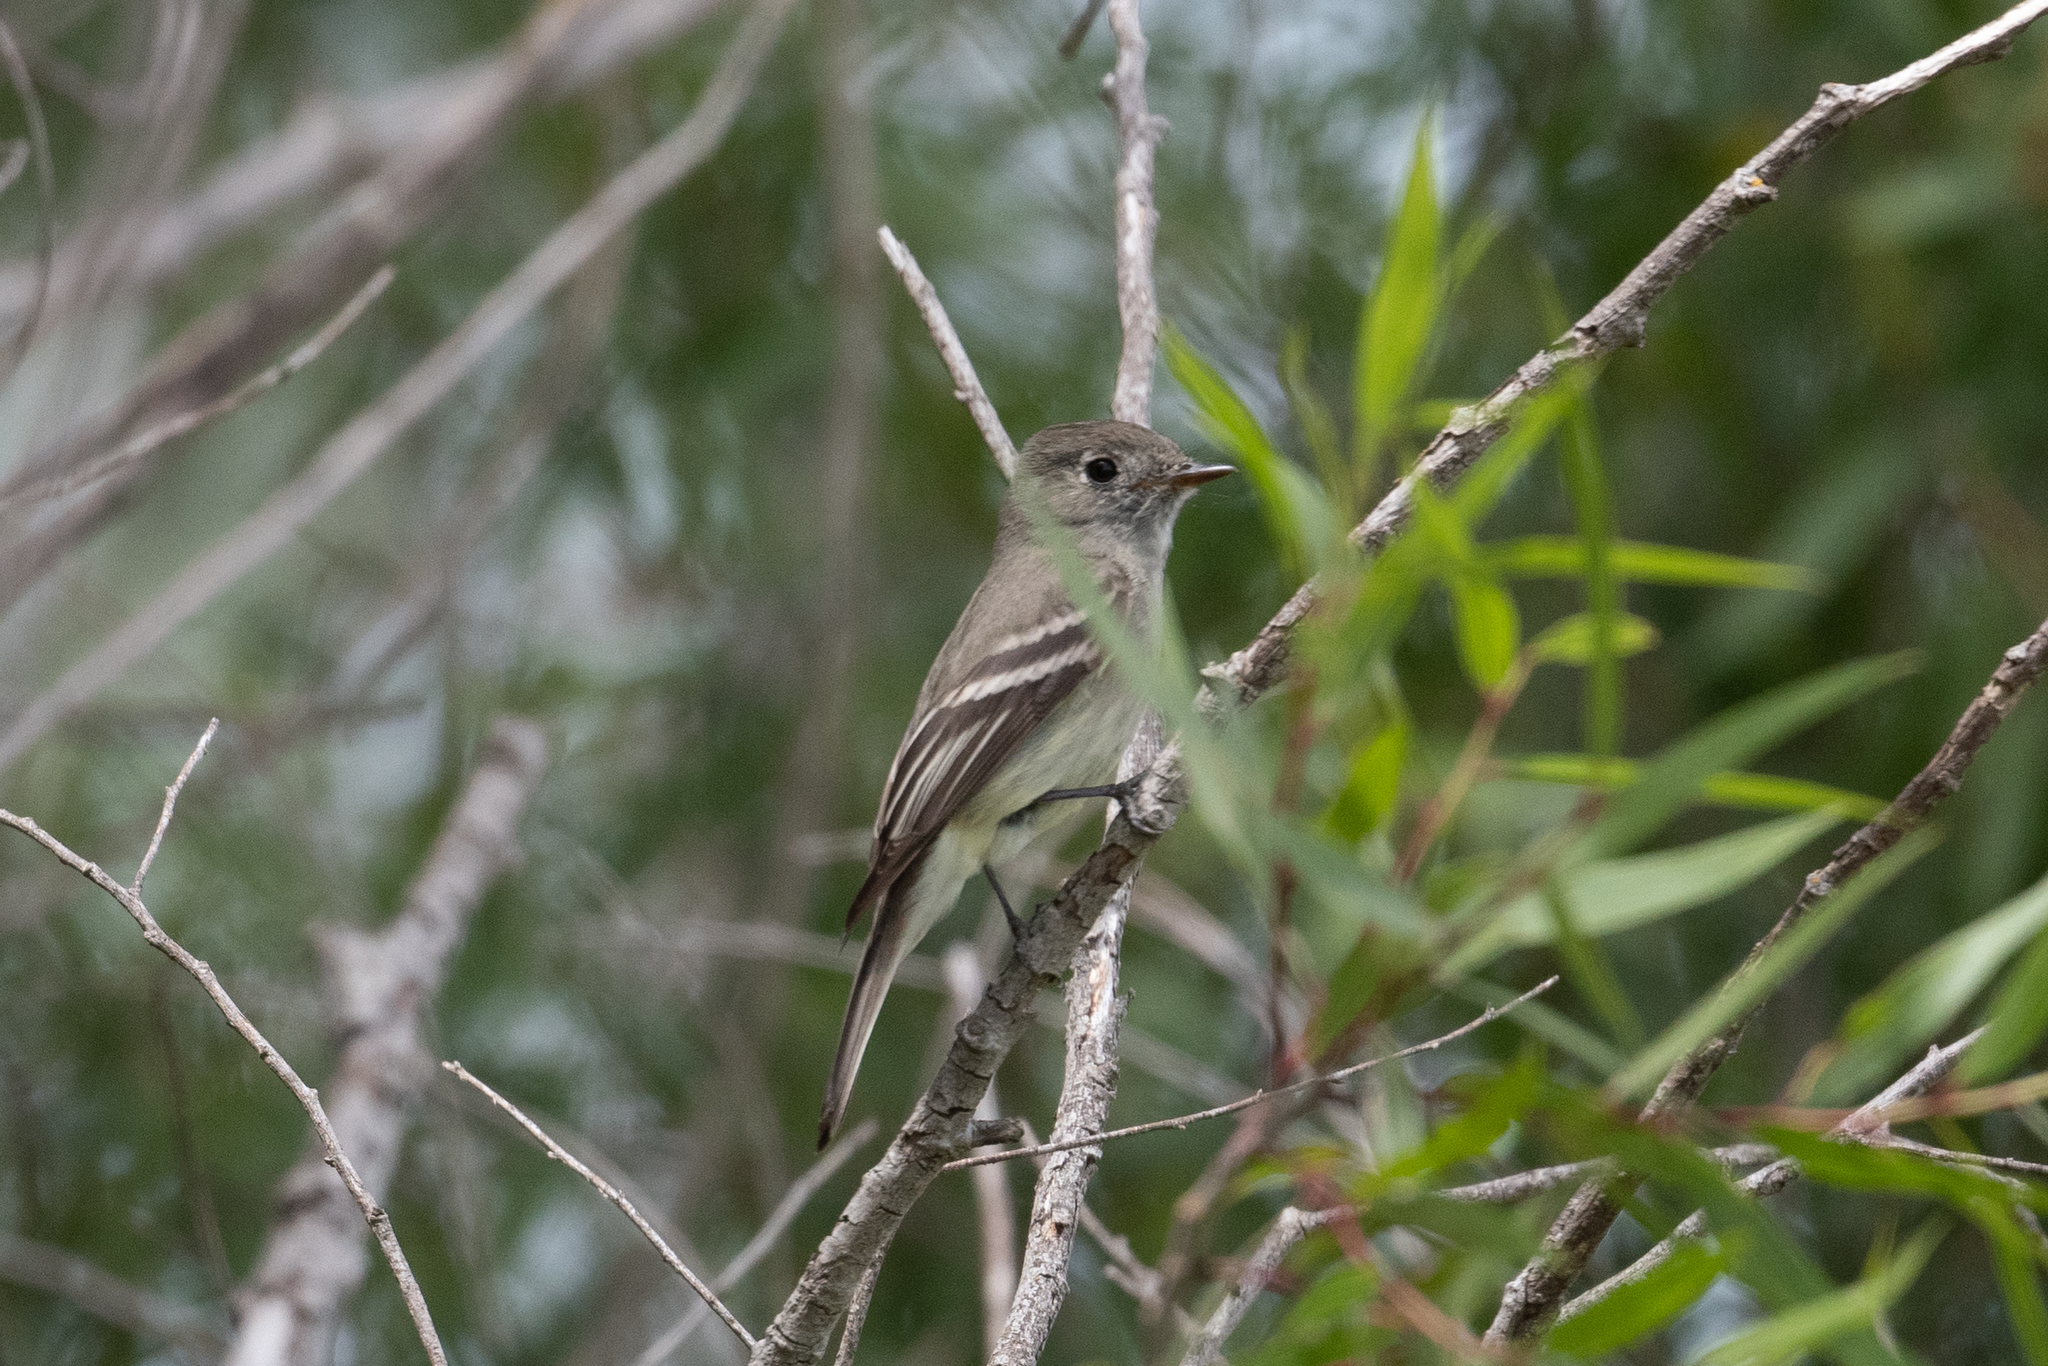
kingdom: Animalia
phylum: Chordata
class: Aves
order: Passeriformes
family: Tyrannidae
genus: Empidonax
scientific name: Empidonax hammondii
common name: Hammond's flycatcher
